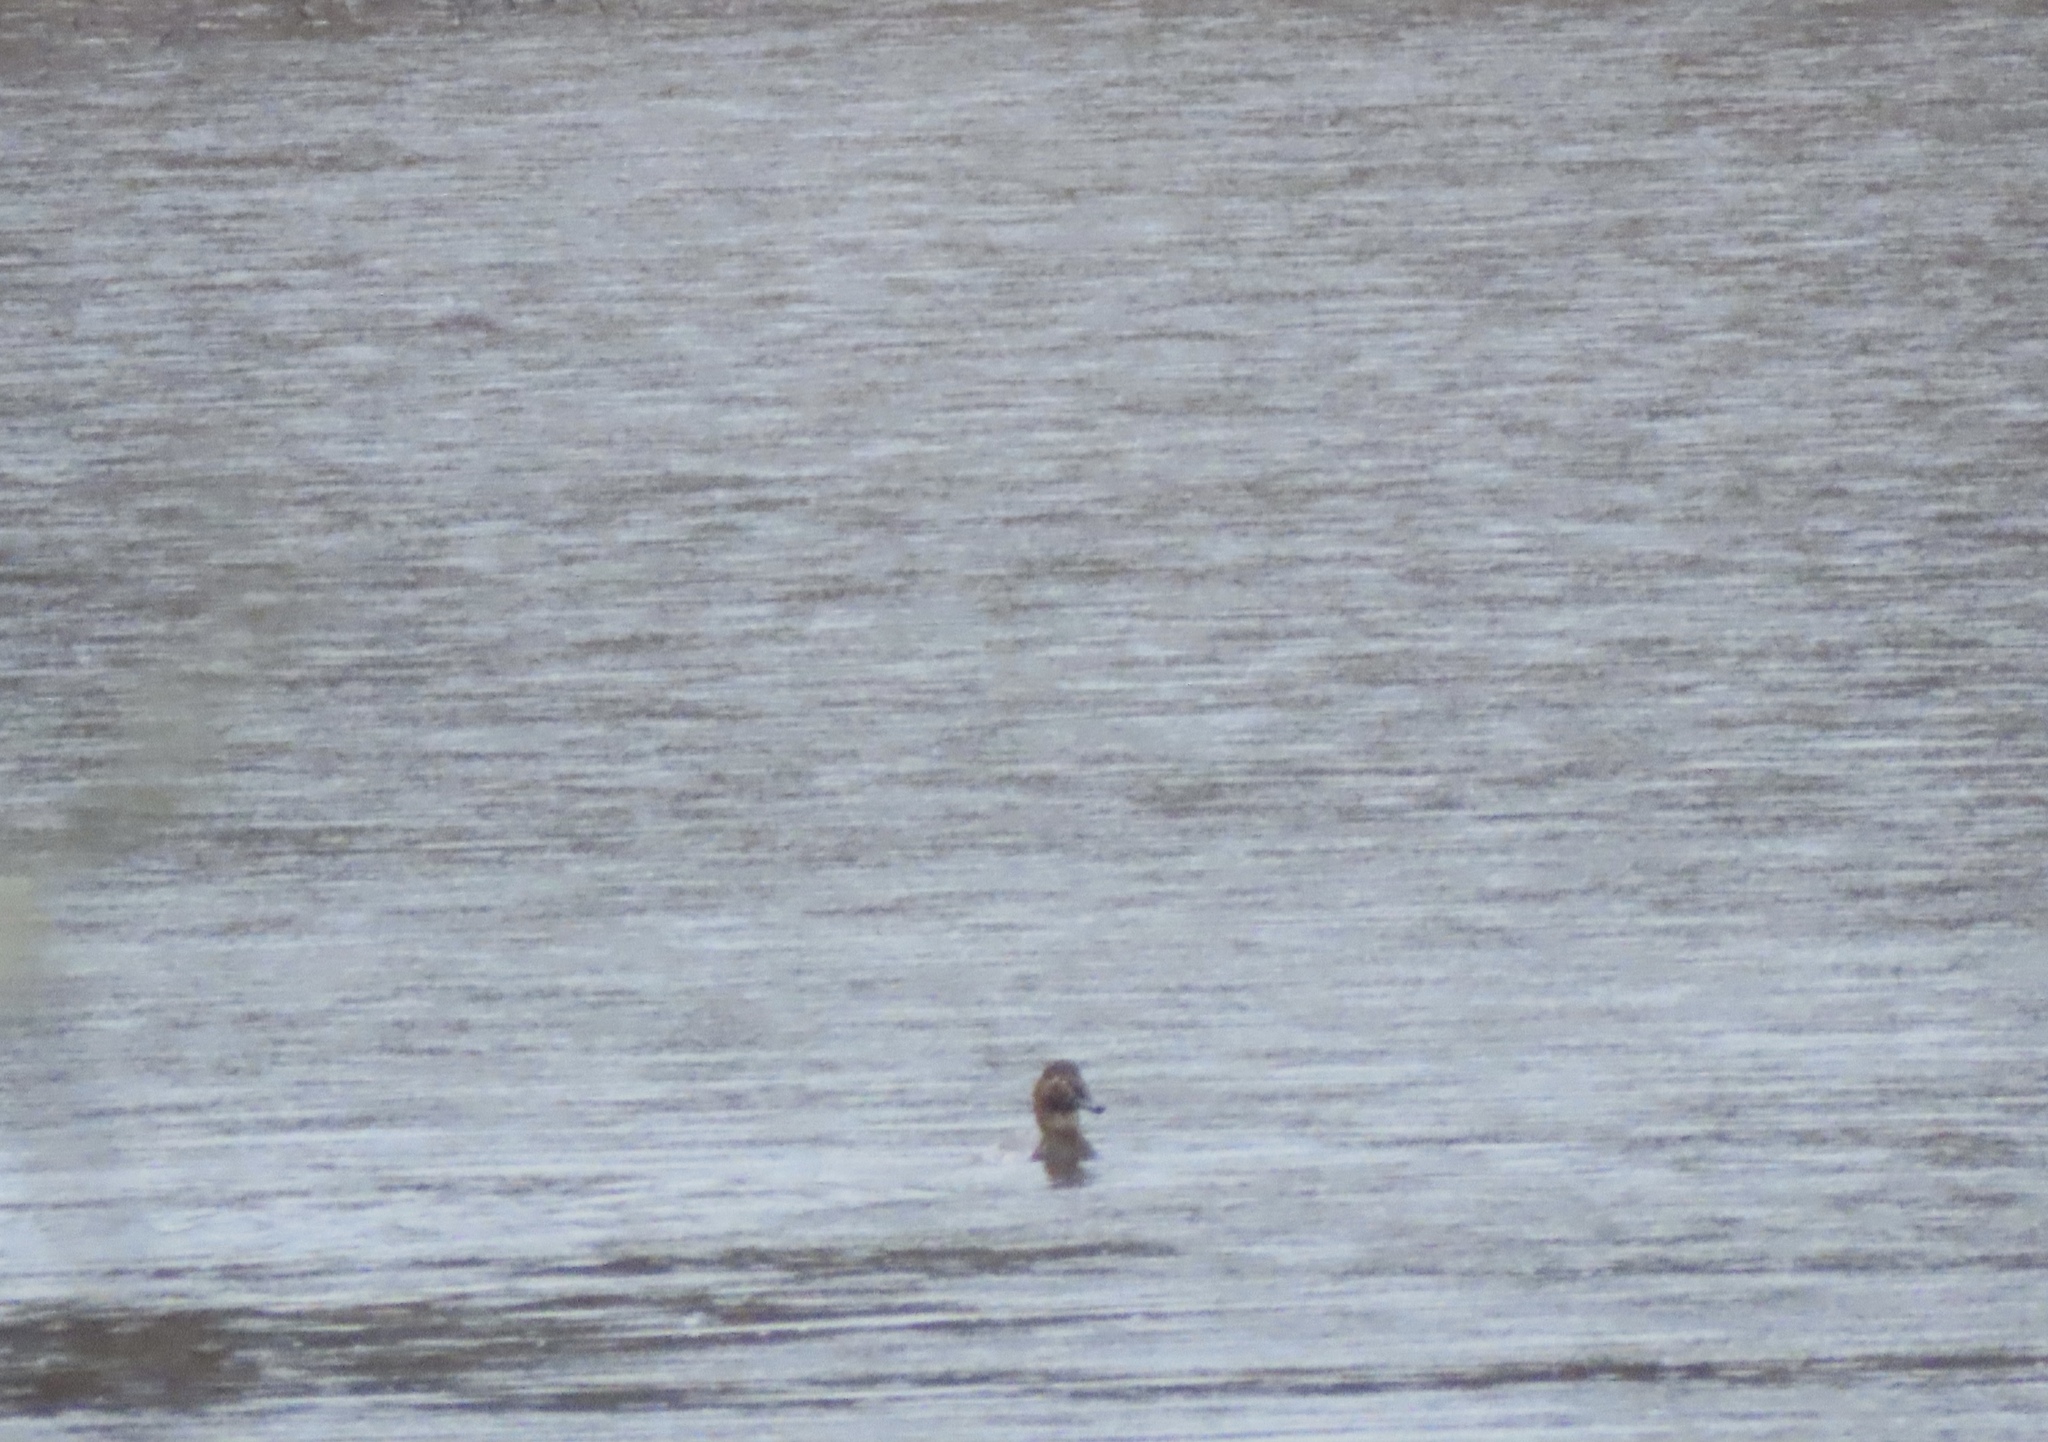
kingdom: Animalia
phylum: Chordata
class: Aves
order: Anseriformes
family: Anatidae
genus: Aythya
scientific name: Aythya valisineria
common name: Canvasback
